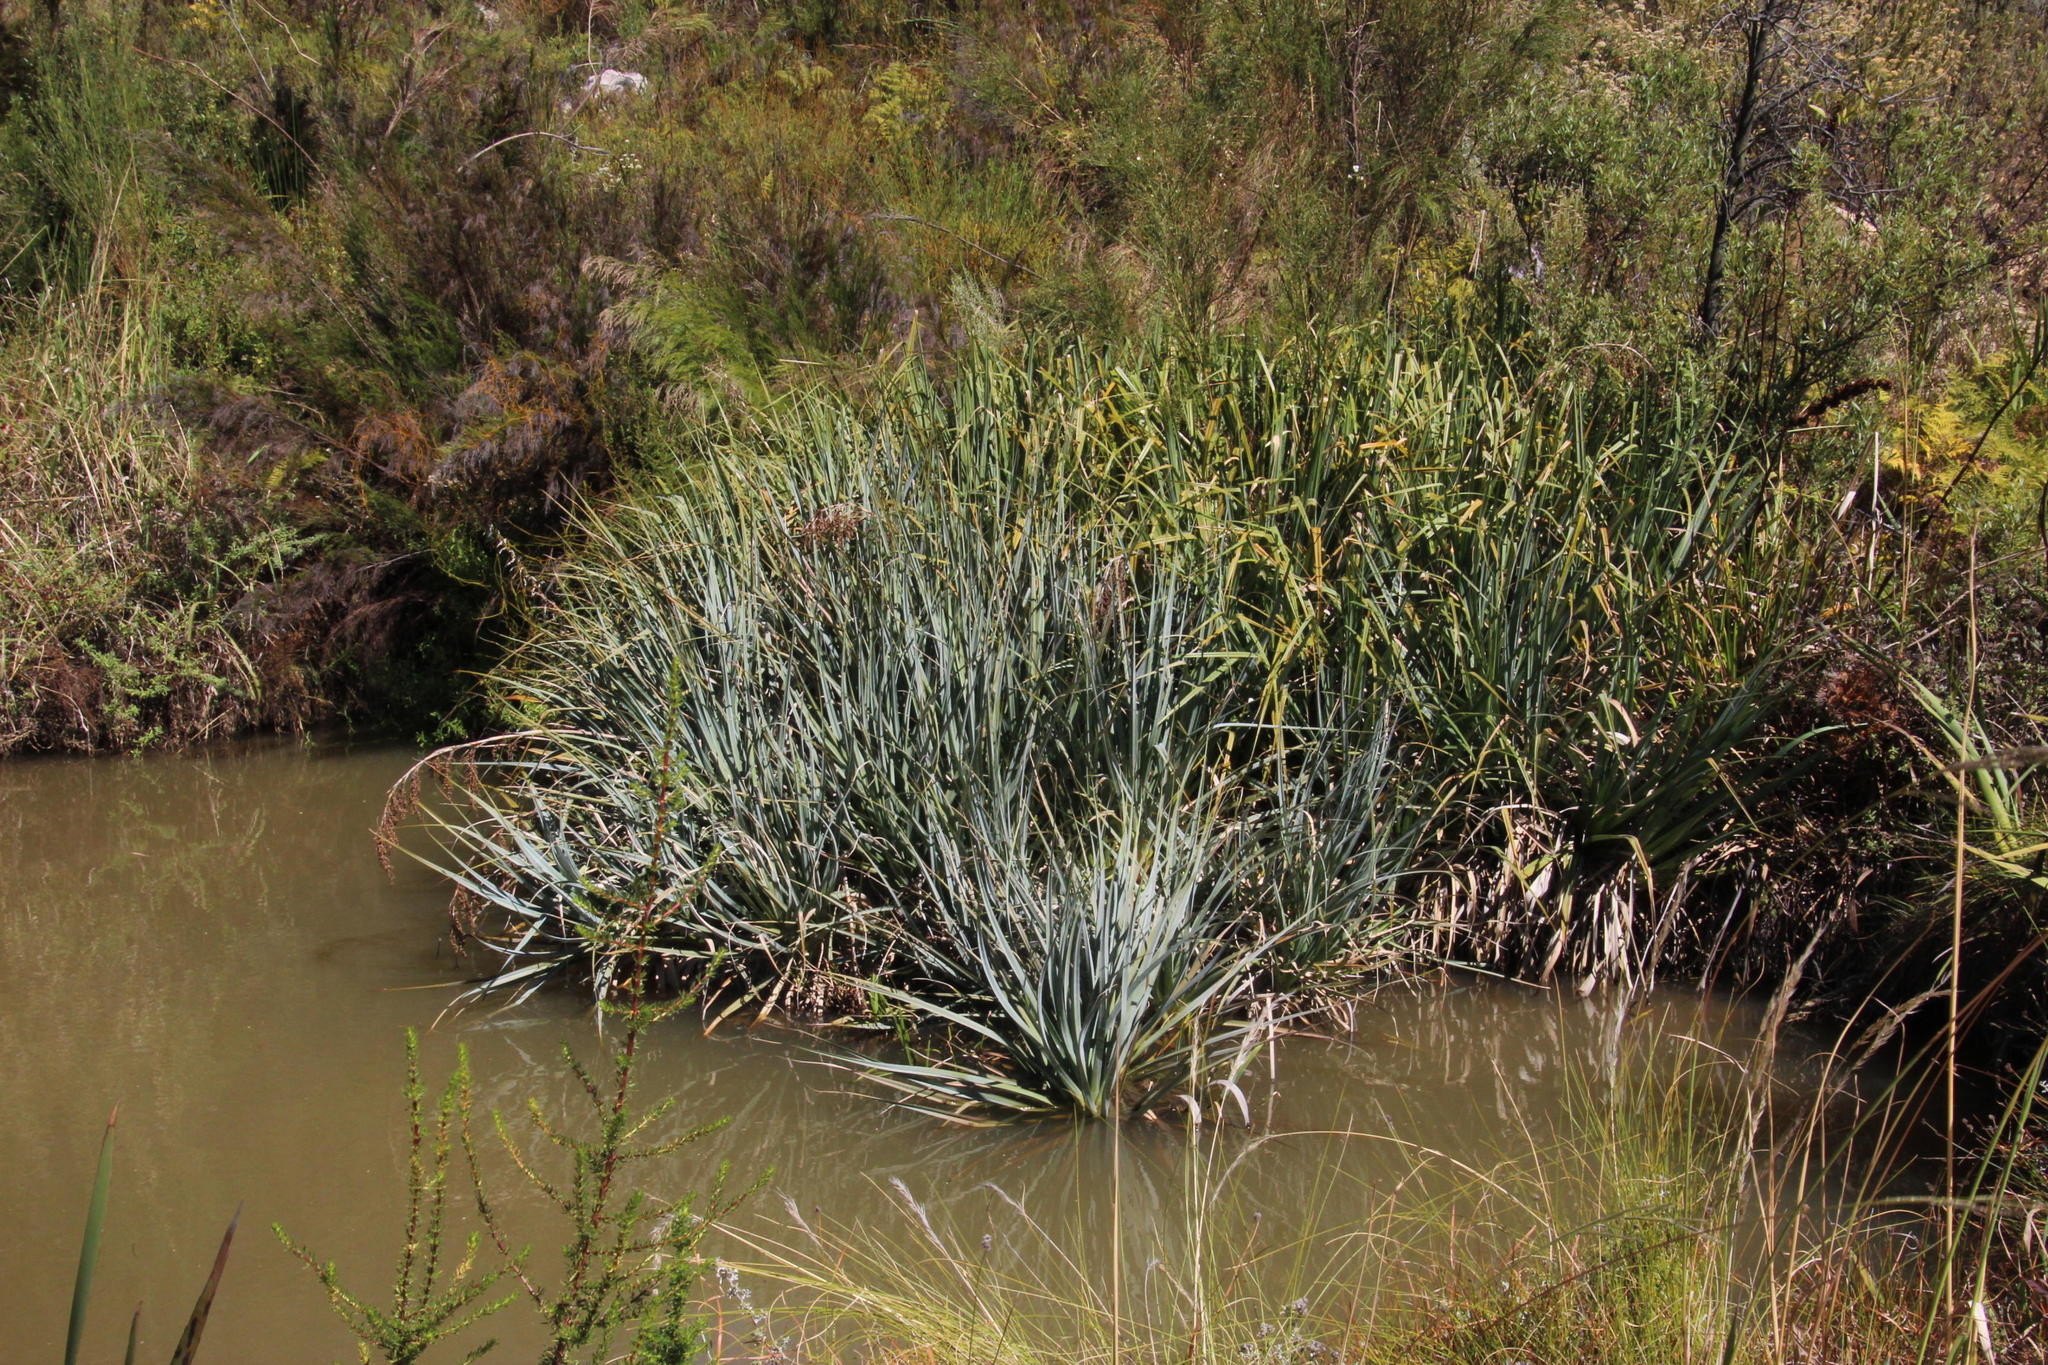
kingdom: Plantae
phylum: Tracheophyta
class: Liliopsida
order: Poales
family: Thurniaceae
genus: Prionium
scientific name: Prionium serratum
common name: Palmiet
